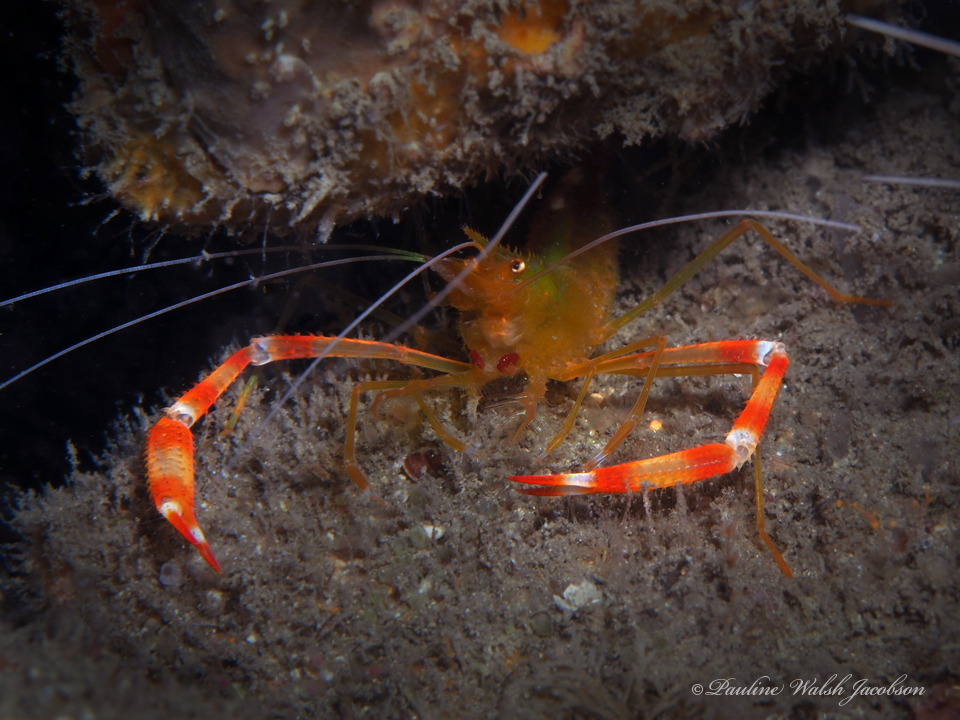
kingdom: Animalia
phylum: Arthropoda
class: Malacostraca
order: Decapoda
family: Stenopodidae
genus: Stenopus
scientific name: Stenopus scutellatus
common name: Golden coral shrimp
